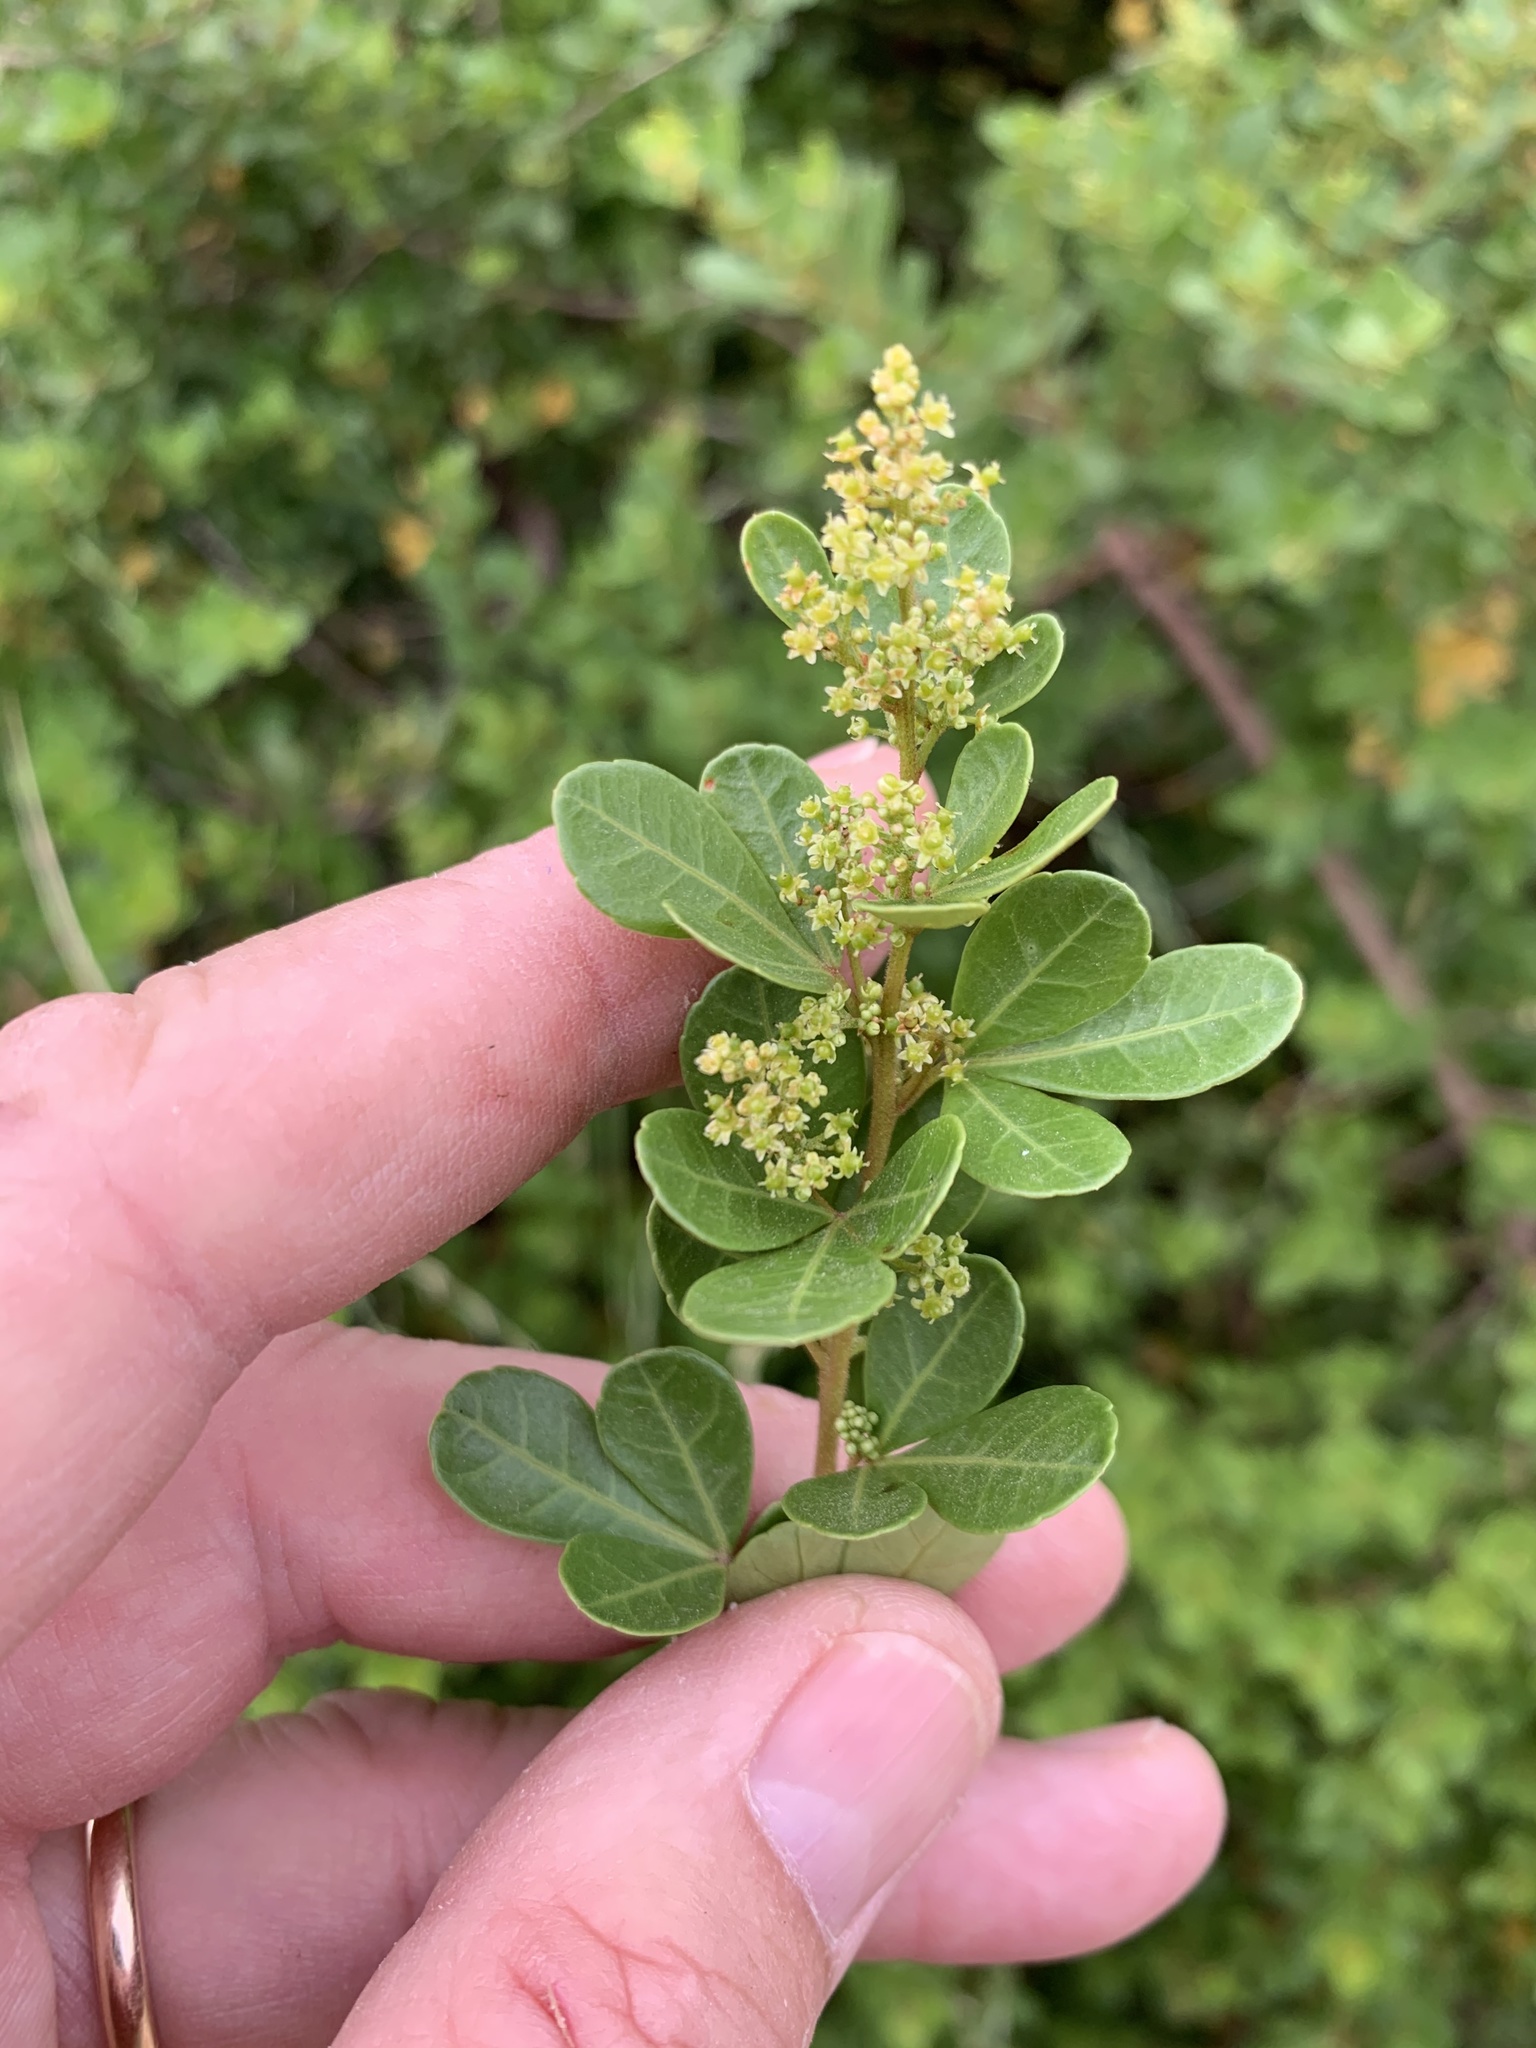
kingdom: Plantae
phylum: Tracheophyta
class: Magnoliopsida
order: Sapindales
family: Anacardiaceae
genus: Searsia
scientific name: Searsia crenata
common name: Crowberry
